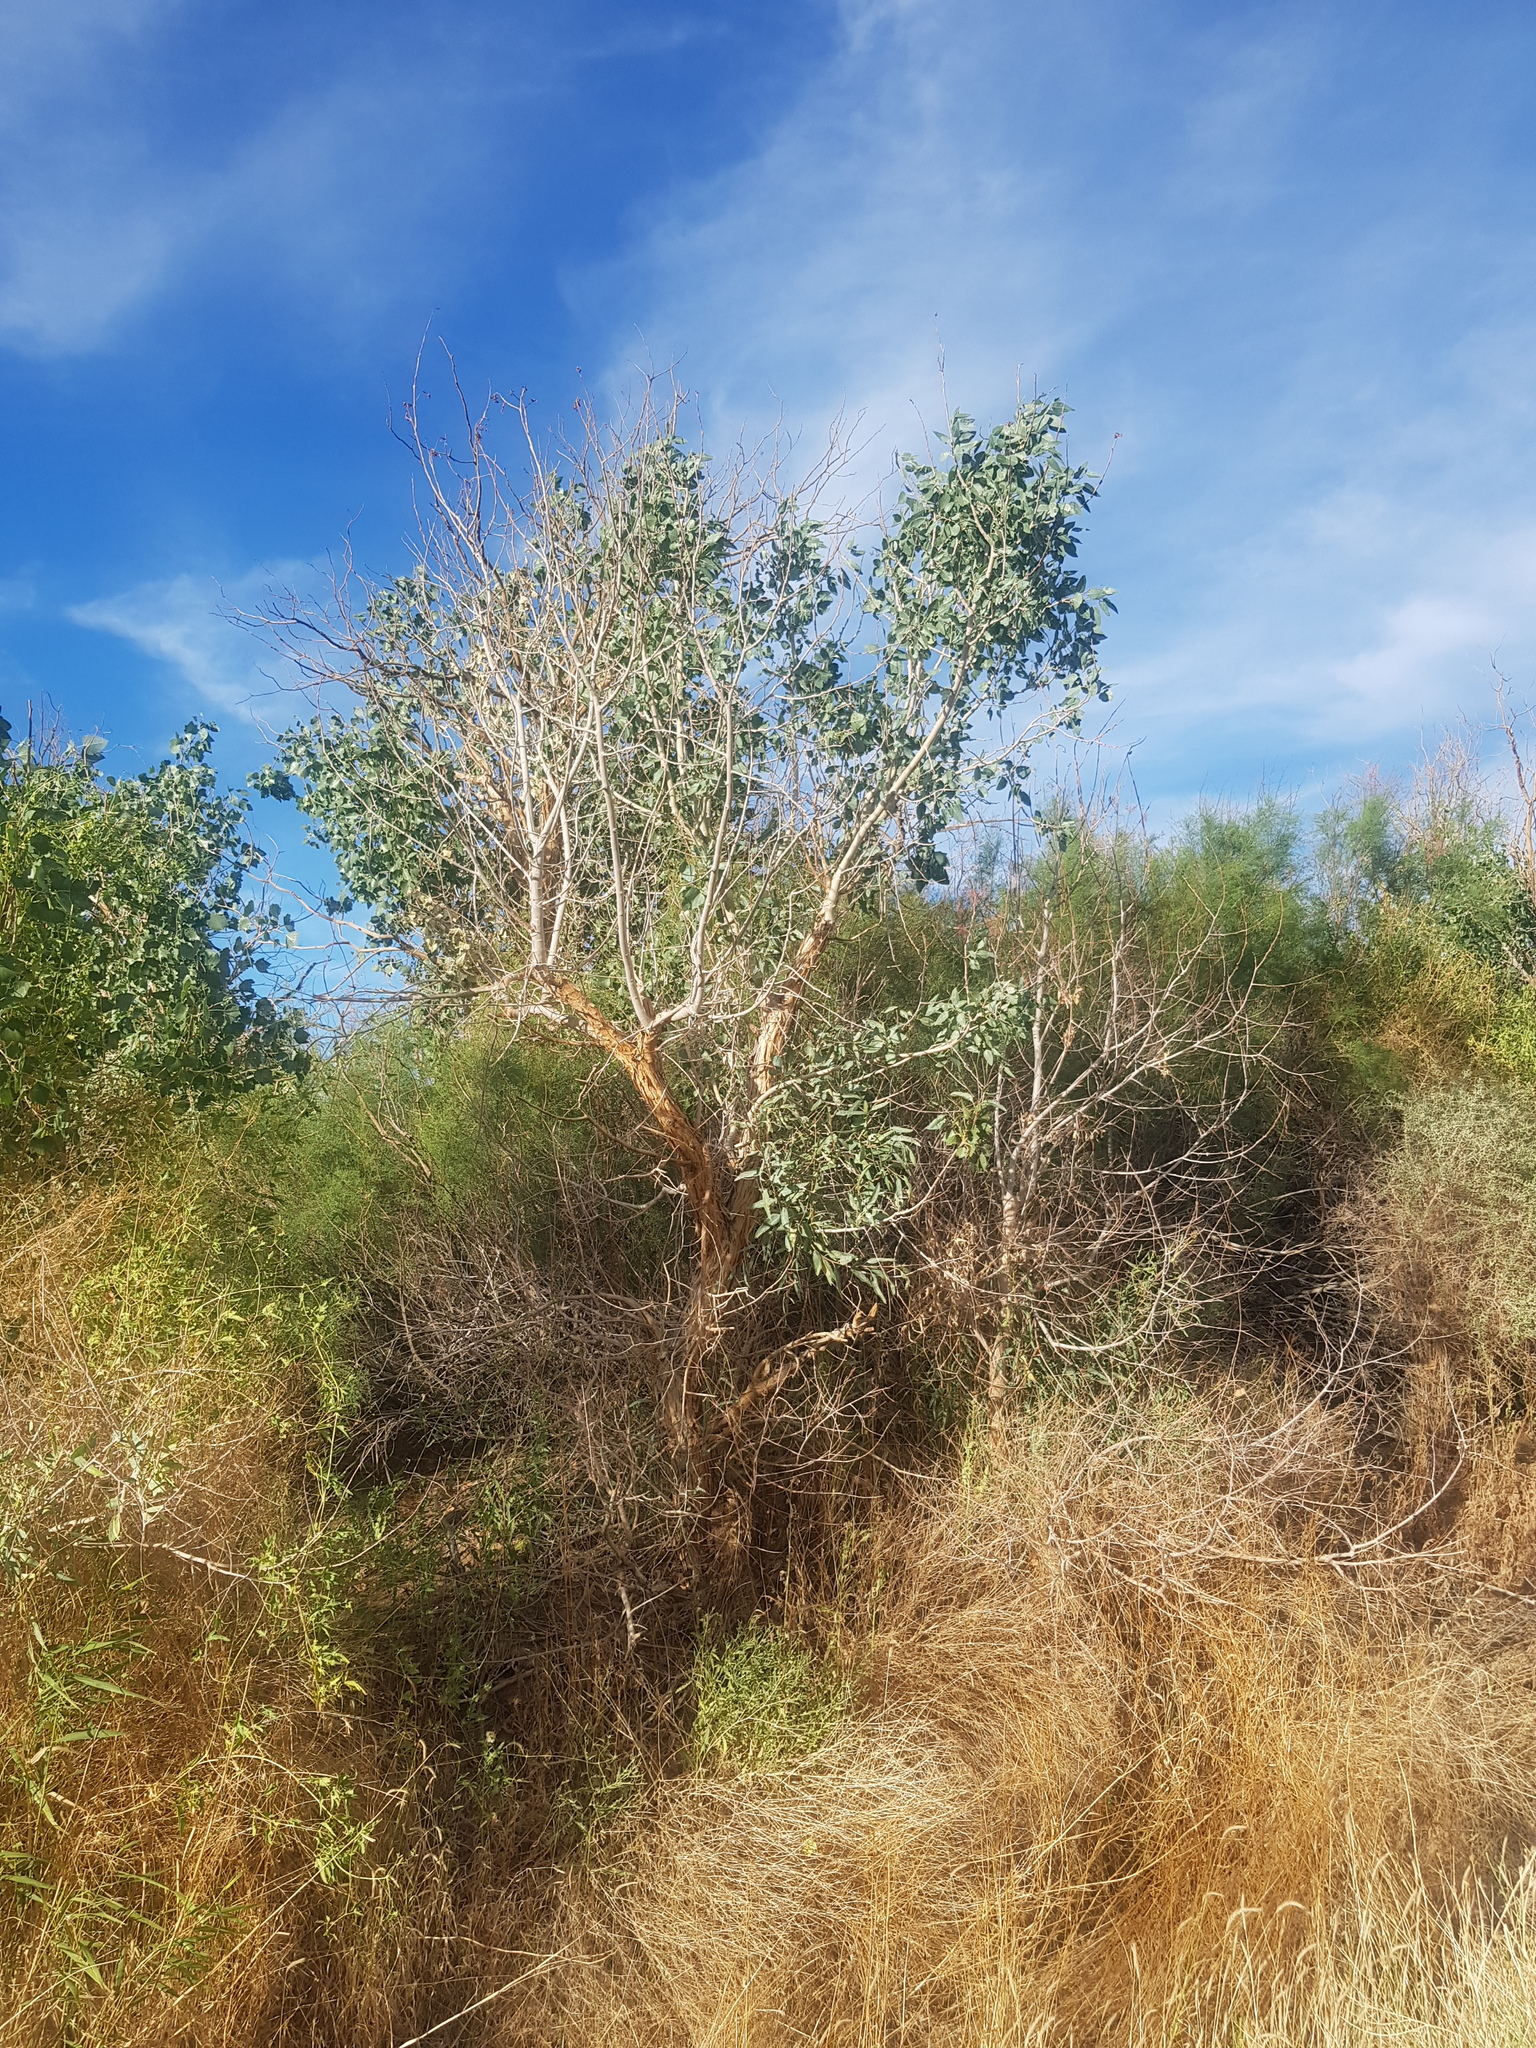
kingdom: Plantae
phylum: Tracheophyta
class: Magnoliopsida
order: Malpighiales
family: Salicaceae
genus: Populus
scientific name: Populus euphratica
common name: Euphrates poplar
